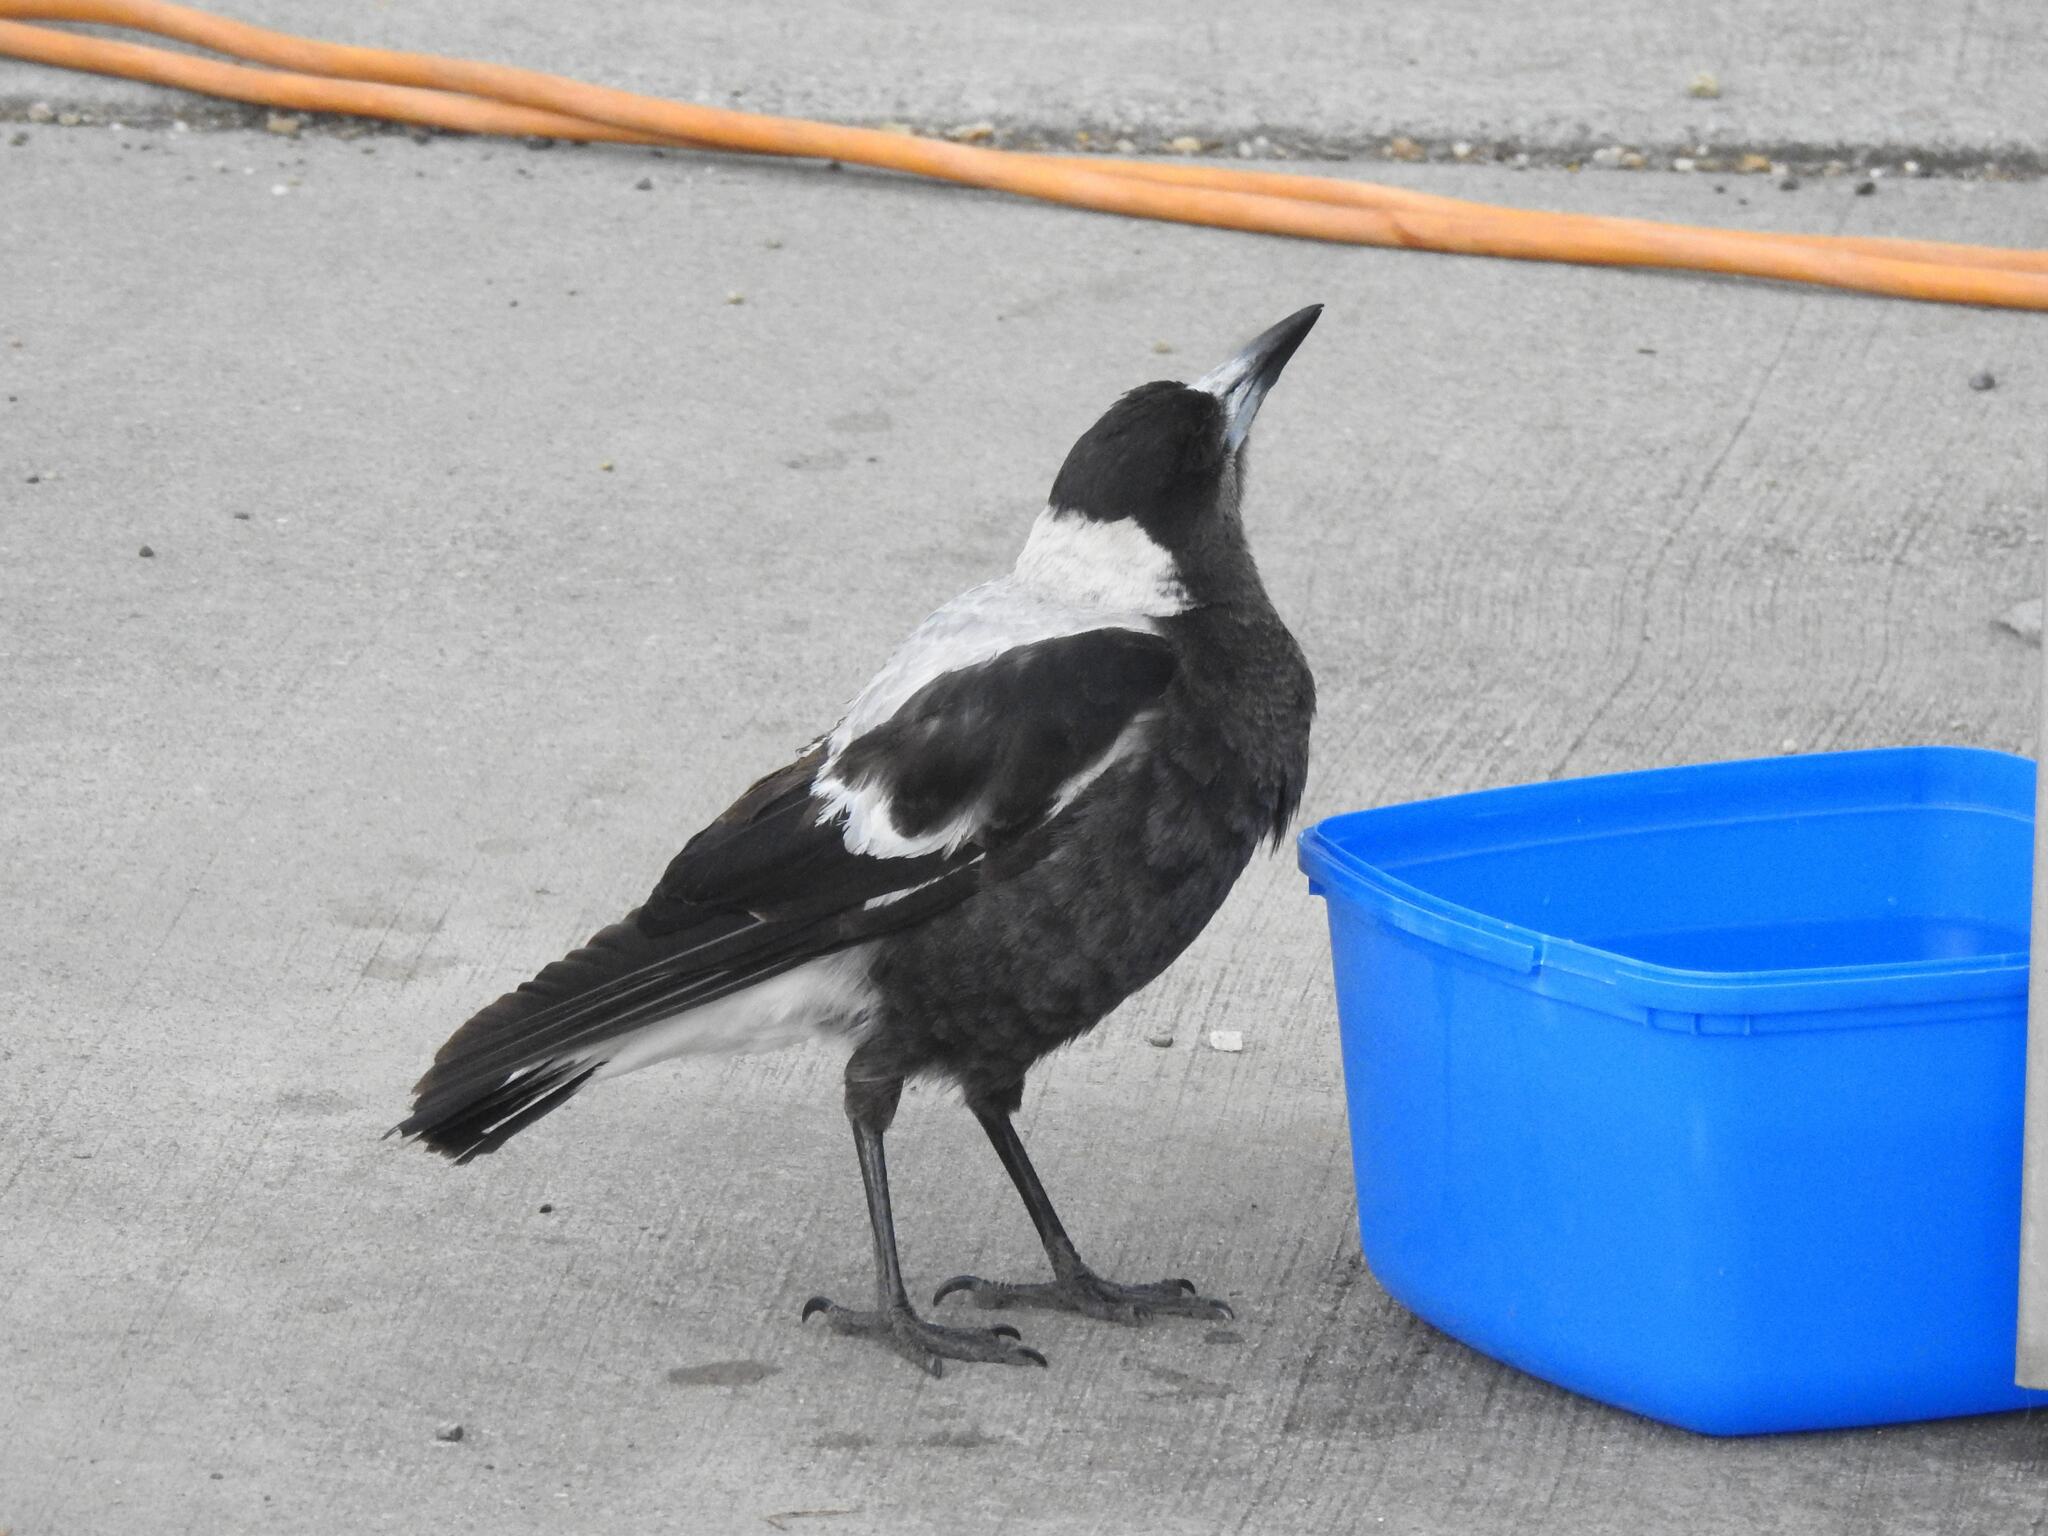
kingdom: Animalia
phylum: Chordata
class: Aves
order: Passeriformes
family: Cracticidae
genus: Gymnorhina
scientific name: Gymnorhina tibicen
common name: Australian magpie
